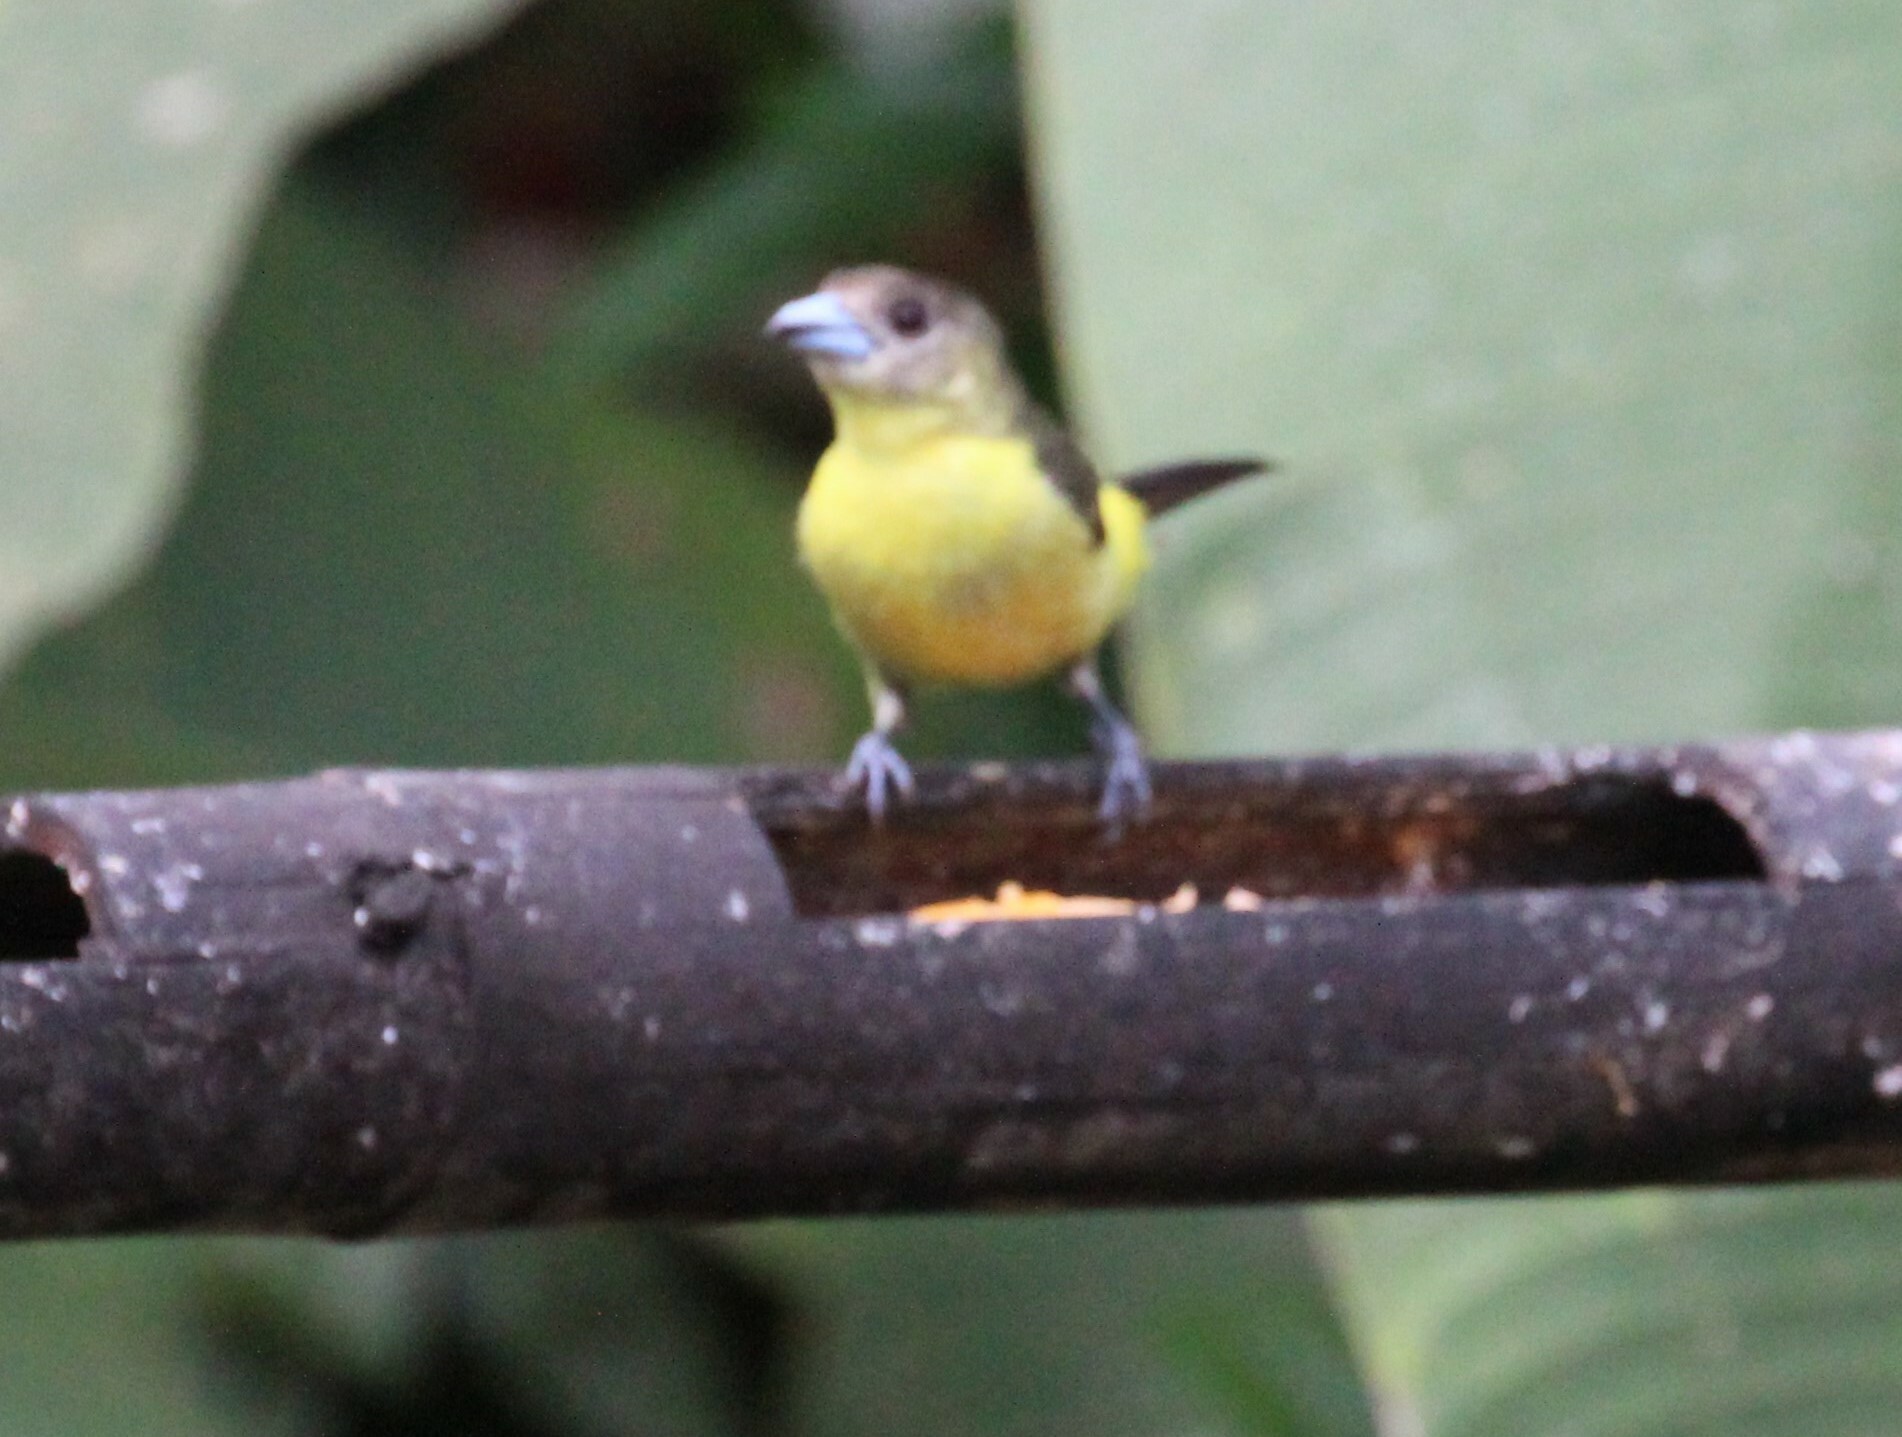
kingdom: Animalia
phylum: Chordata
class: Aves
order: Passeriformes
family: Thraupidae
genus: Ramphocelus
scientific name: Ramphocelus flammigerus
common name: Flame-rumped tanager
